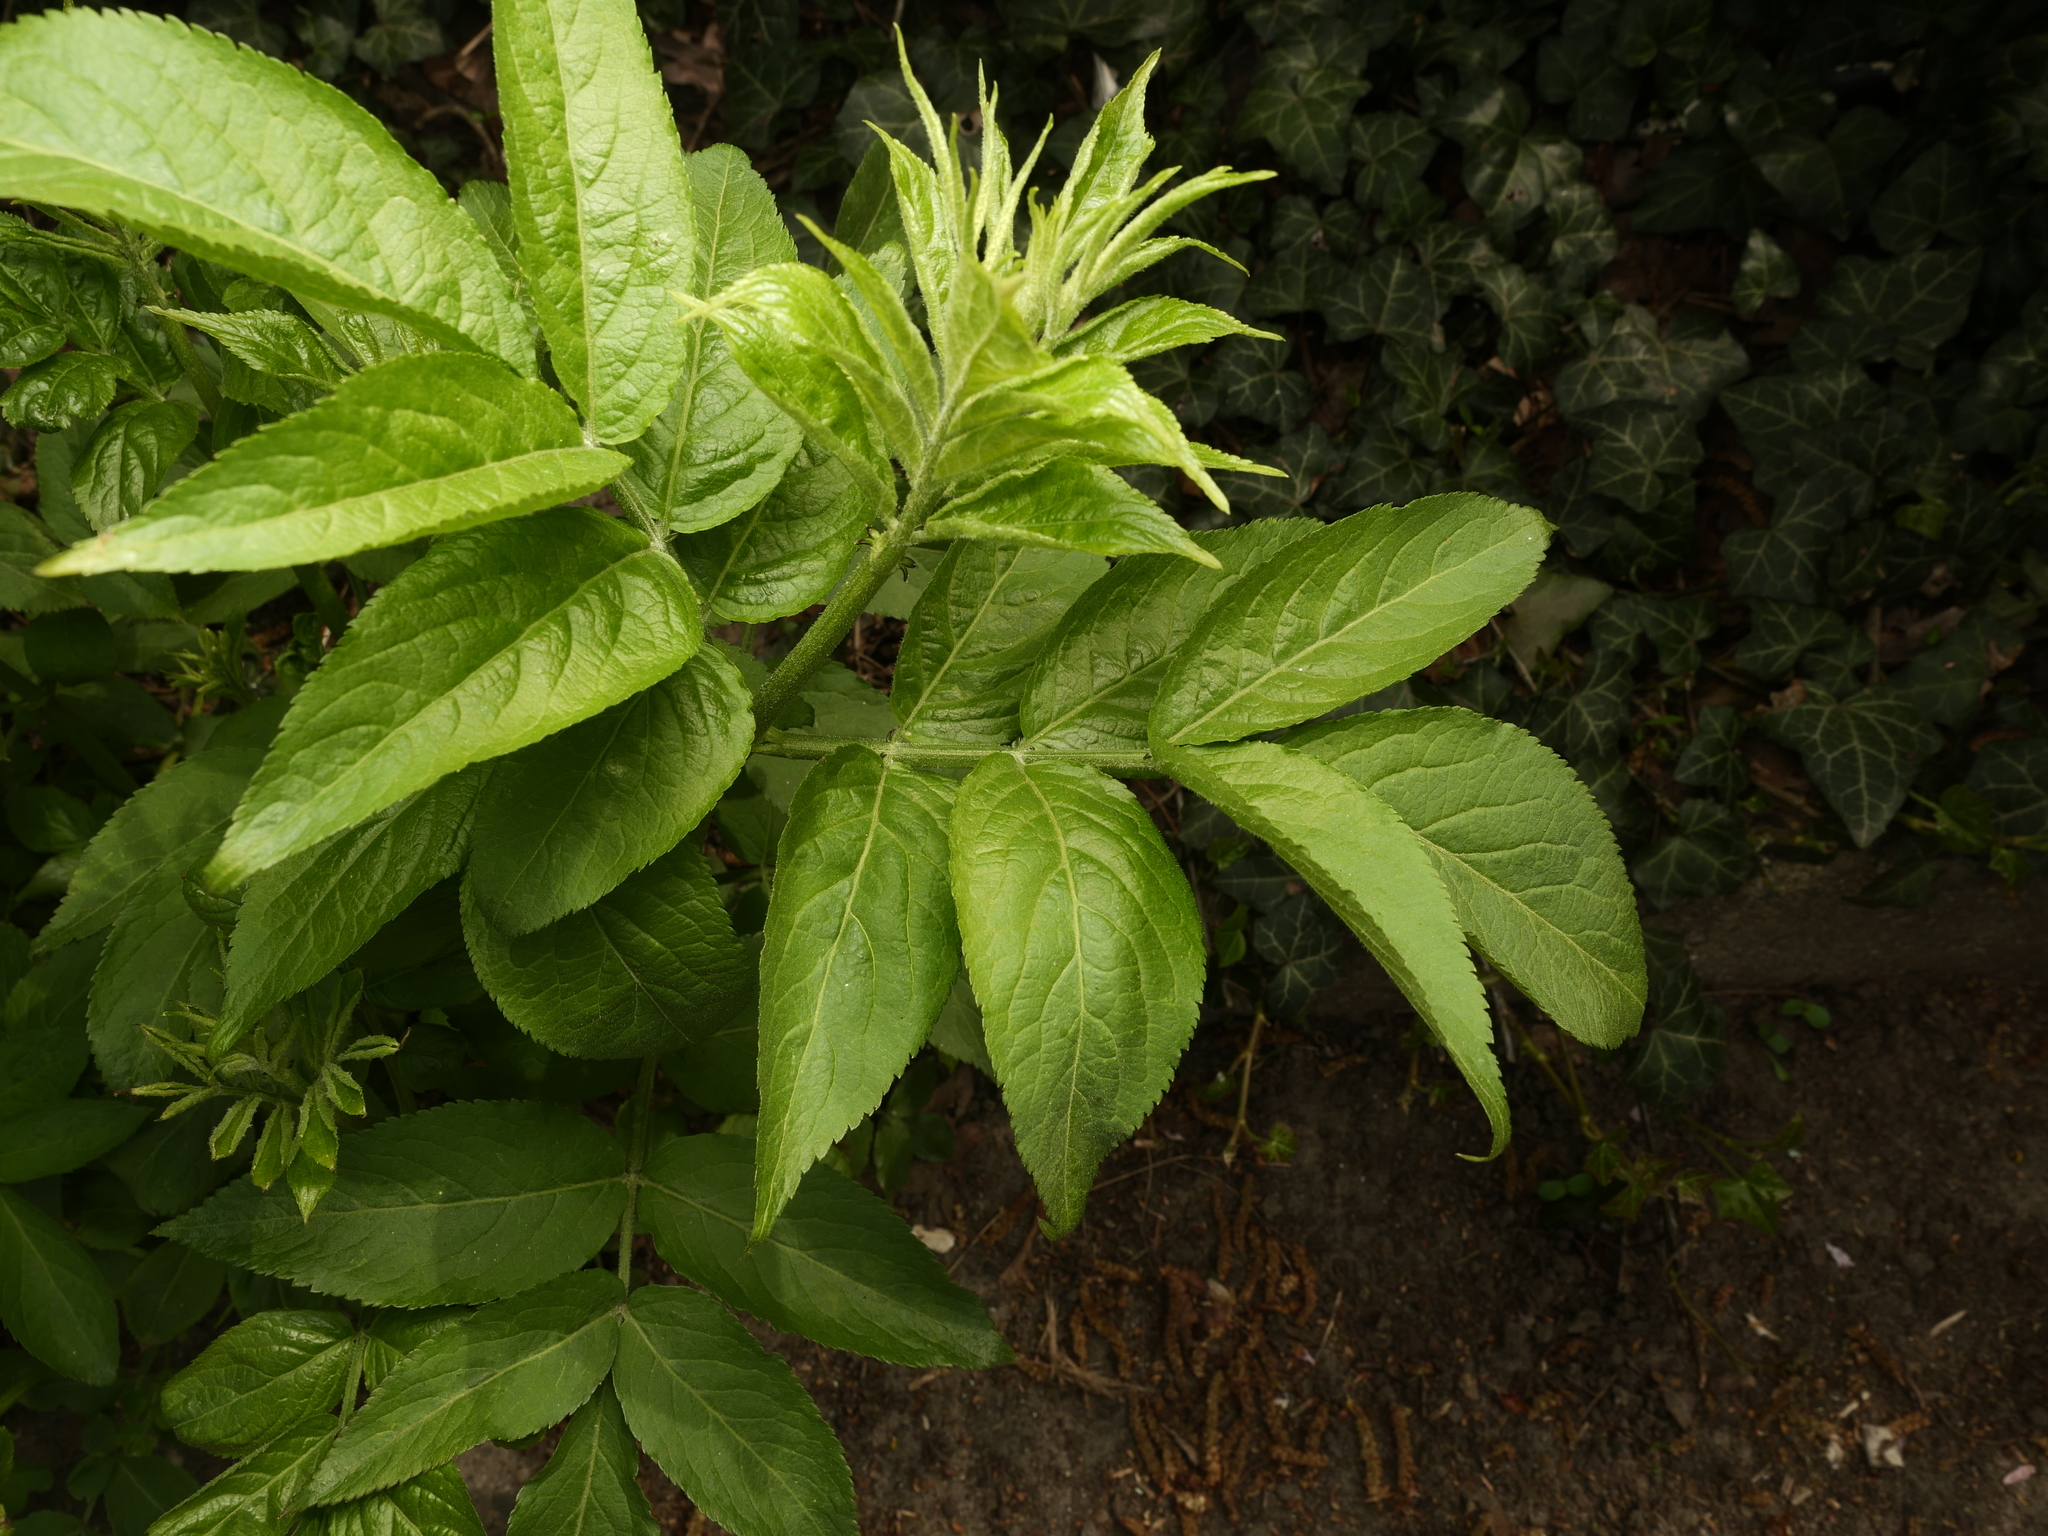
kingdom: Plantae
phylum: Tracheophyta
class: Magnoliopsida
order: Dipsacales
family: Viburnaceae
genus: Sambucus
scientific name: Sambucus nigra
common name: Elder
